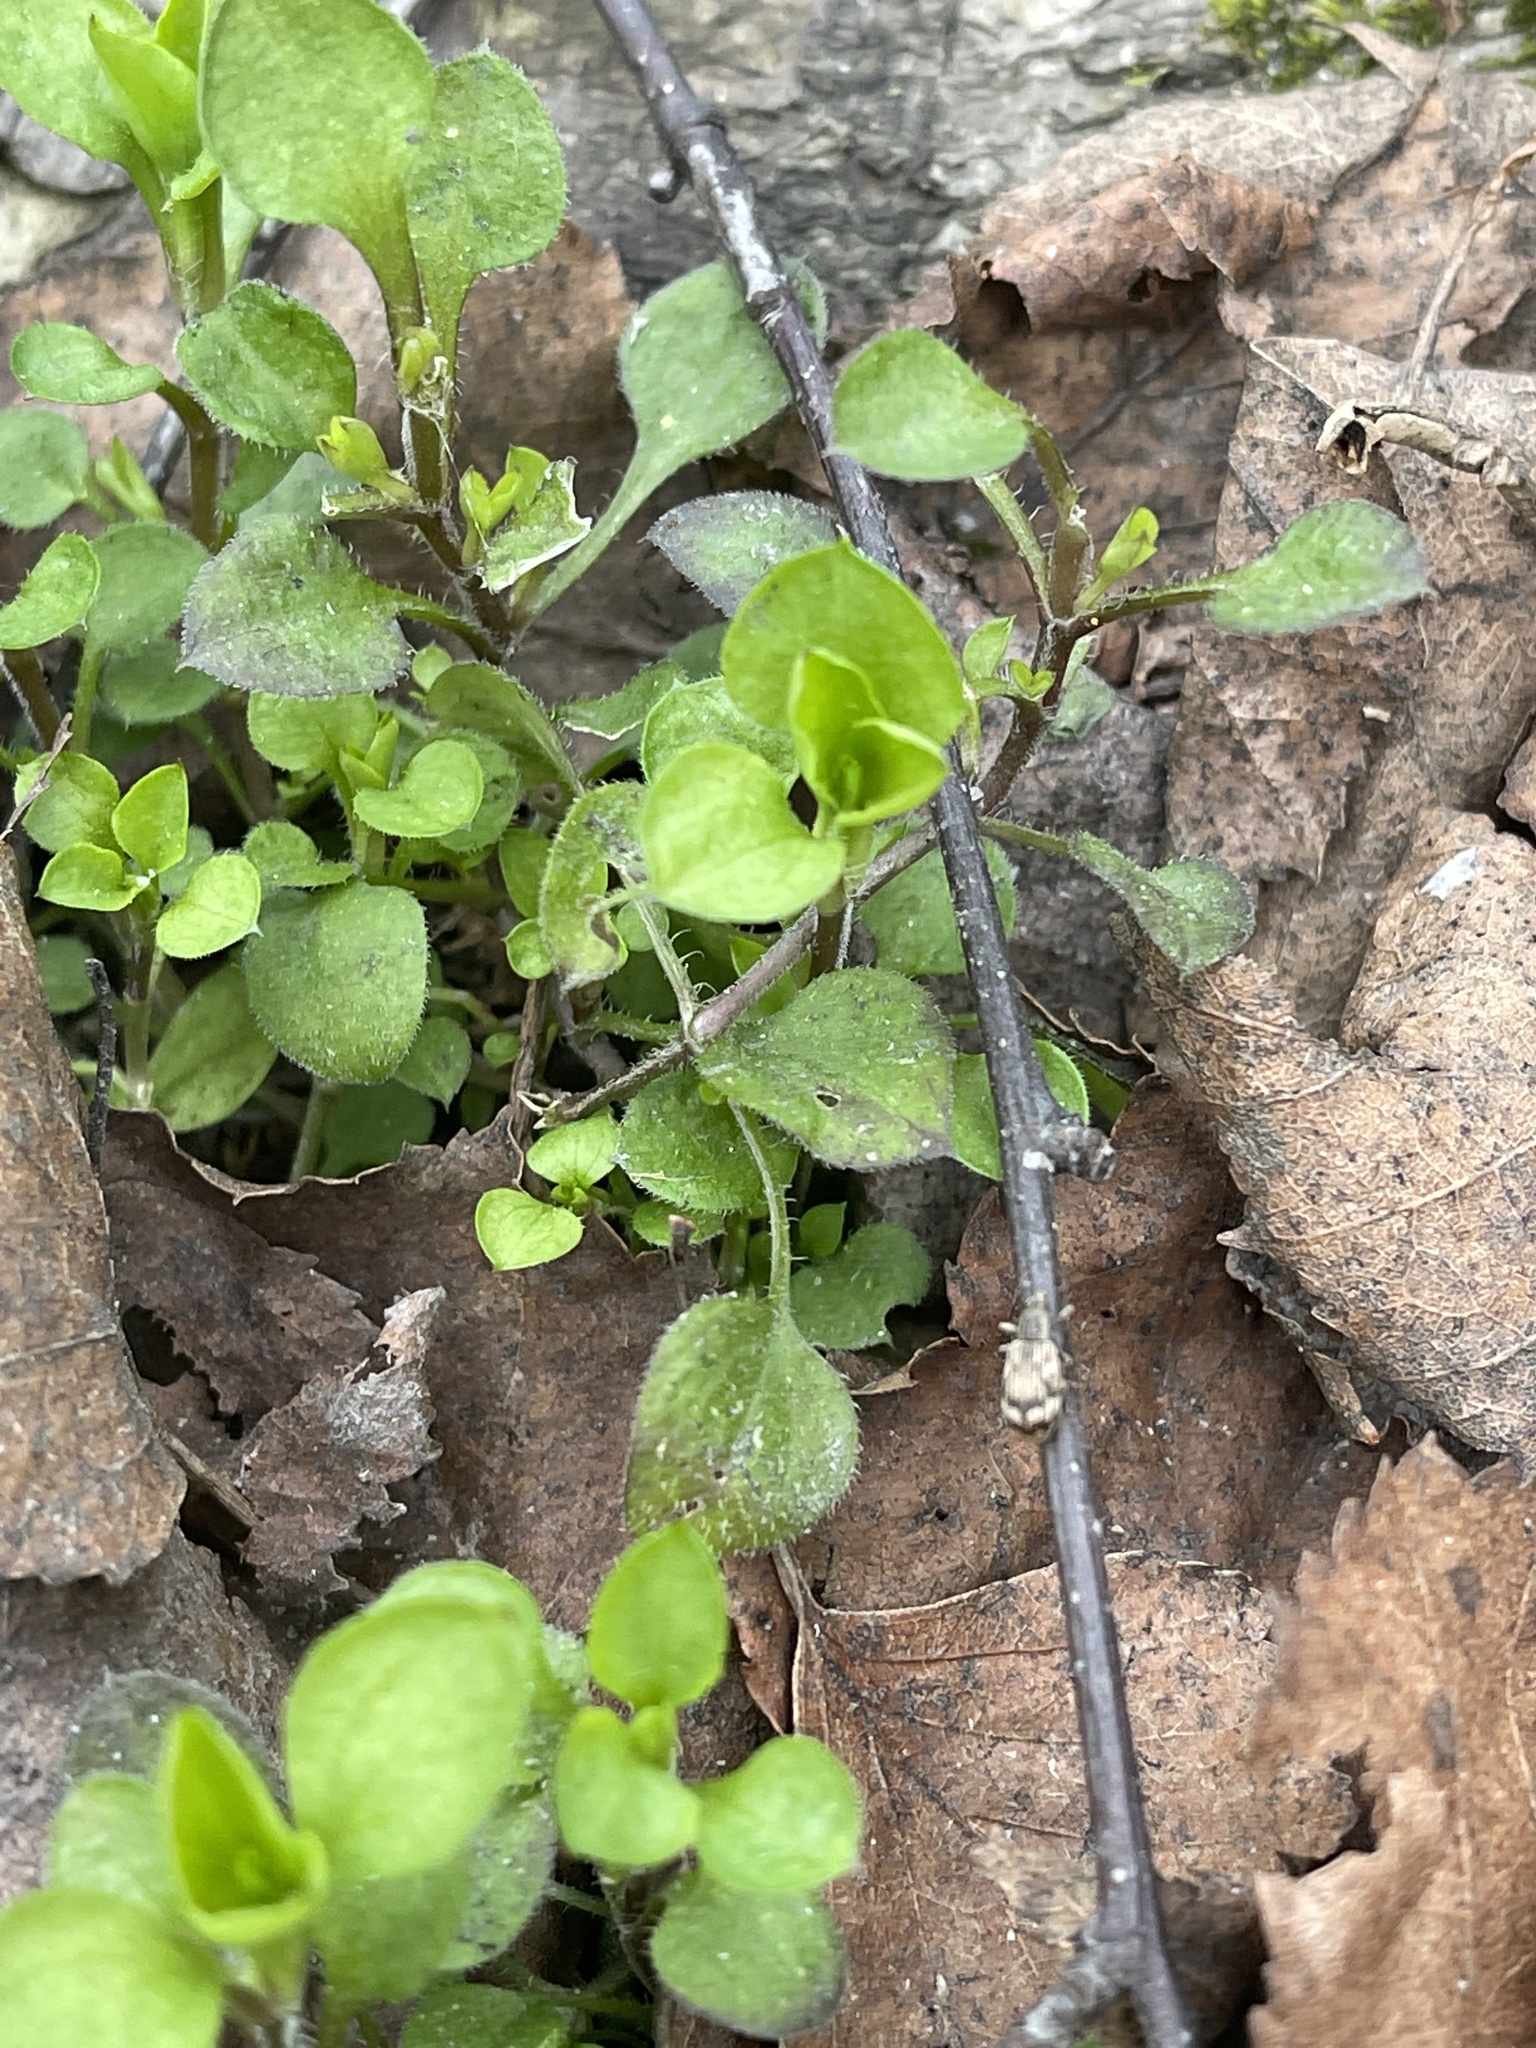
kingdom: Plantae
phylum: Tracheophyta
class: Magnoliopsida
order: Caryophyllales
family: Caryophyllaceae
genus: Moehringia
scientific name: Moehringia trinervia
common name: Three-nerved sandwort
